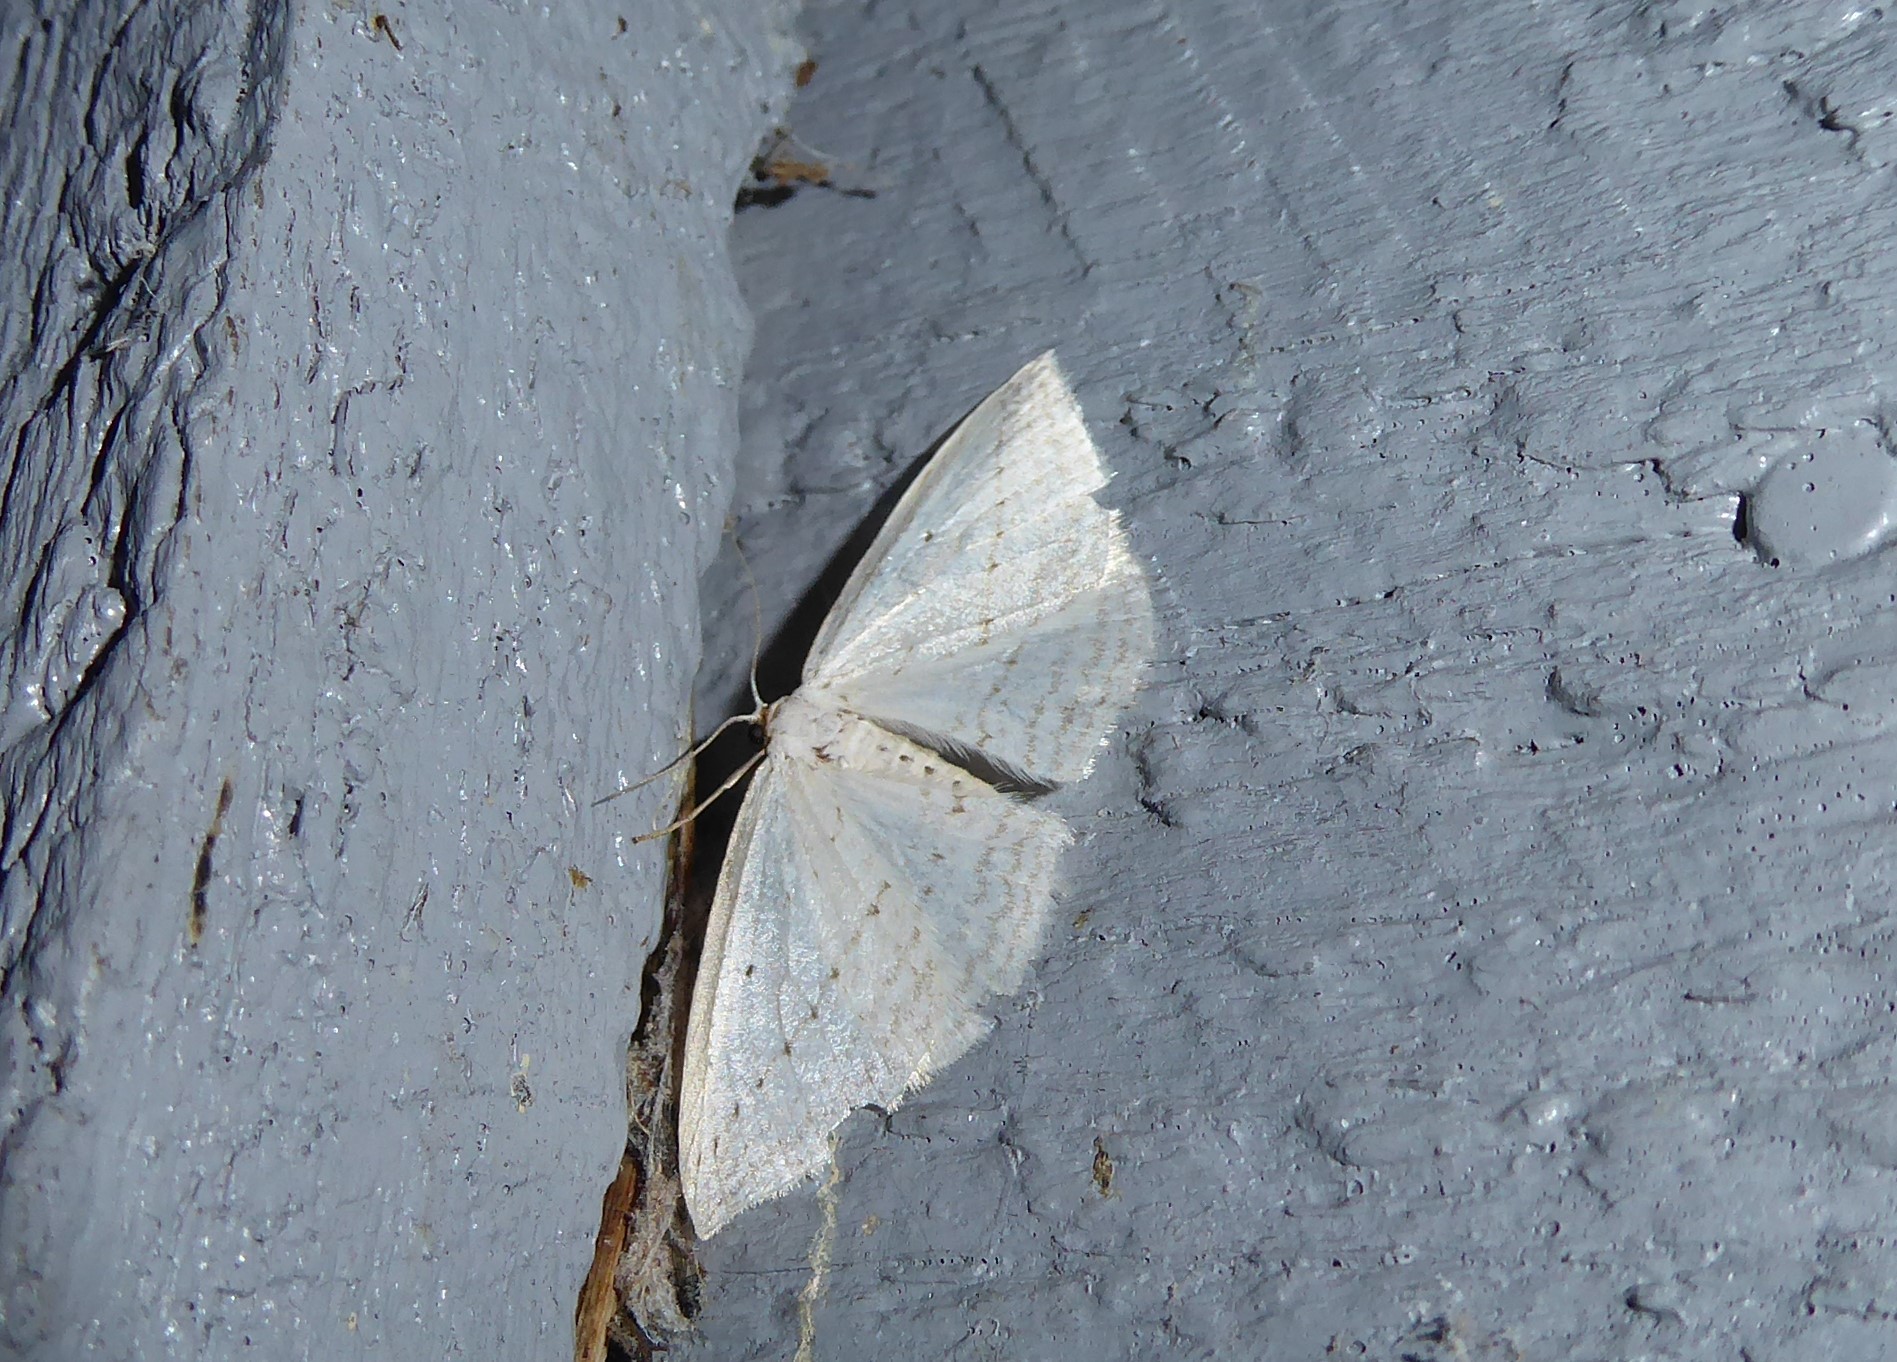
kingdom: Animalia
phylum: Arthropoda
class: Insecta
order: Lepidoptera
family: Geometridae
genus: Orthoclydon
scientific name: Orthoclydon praefectata
